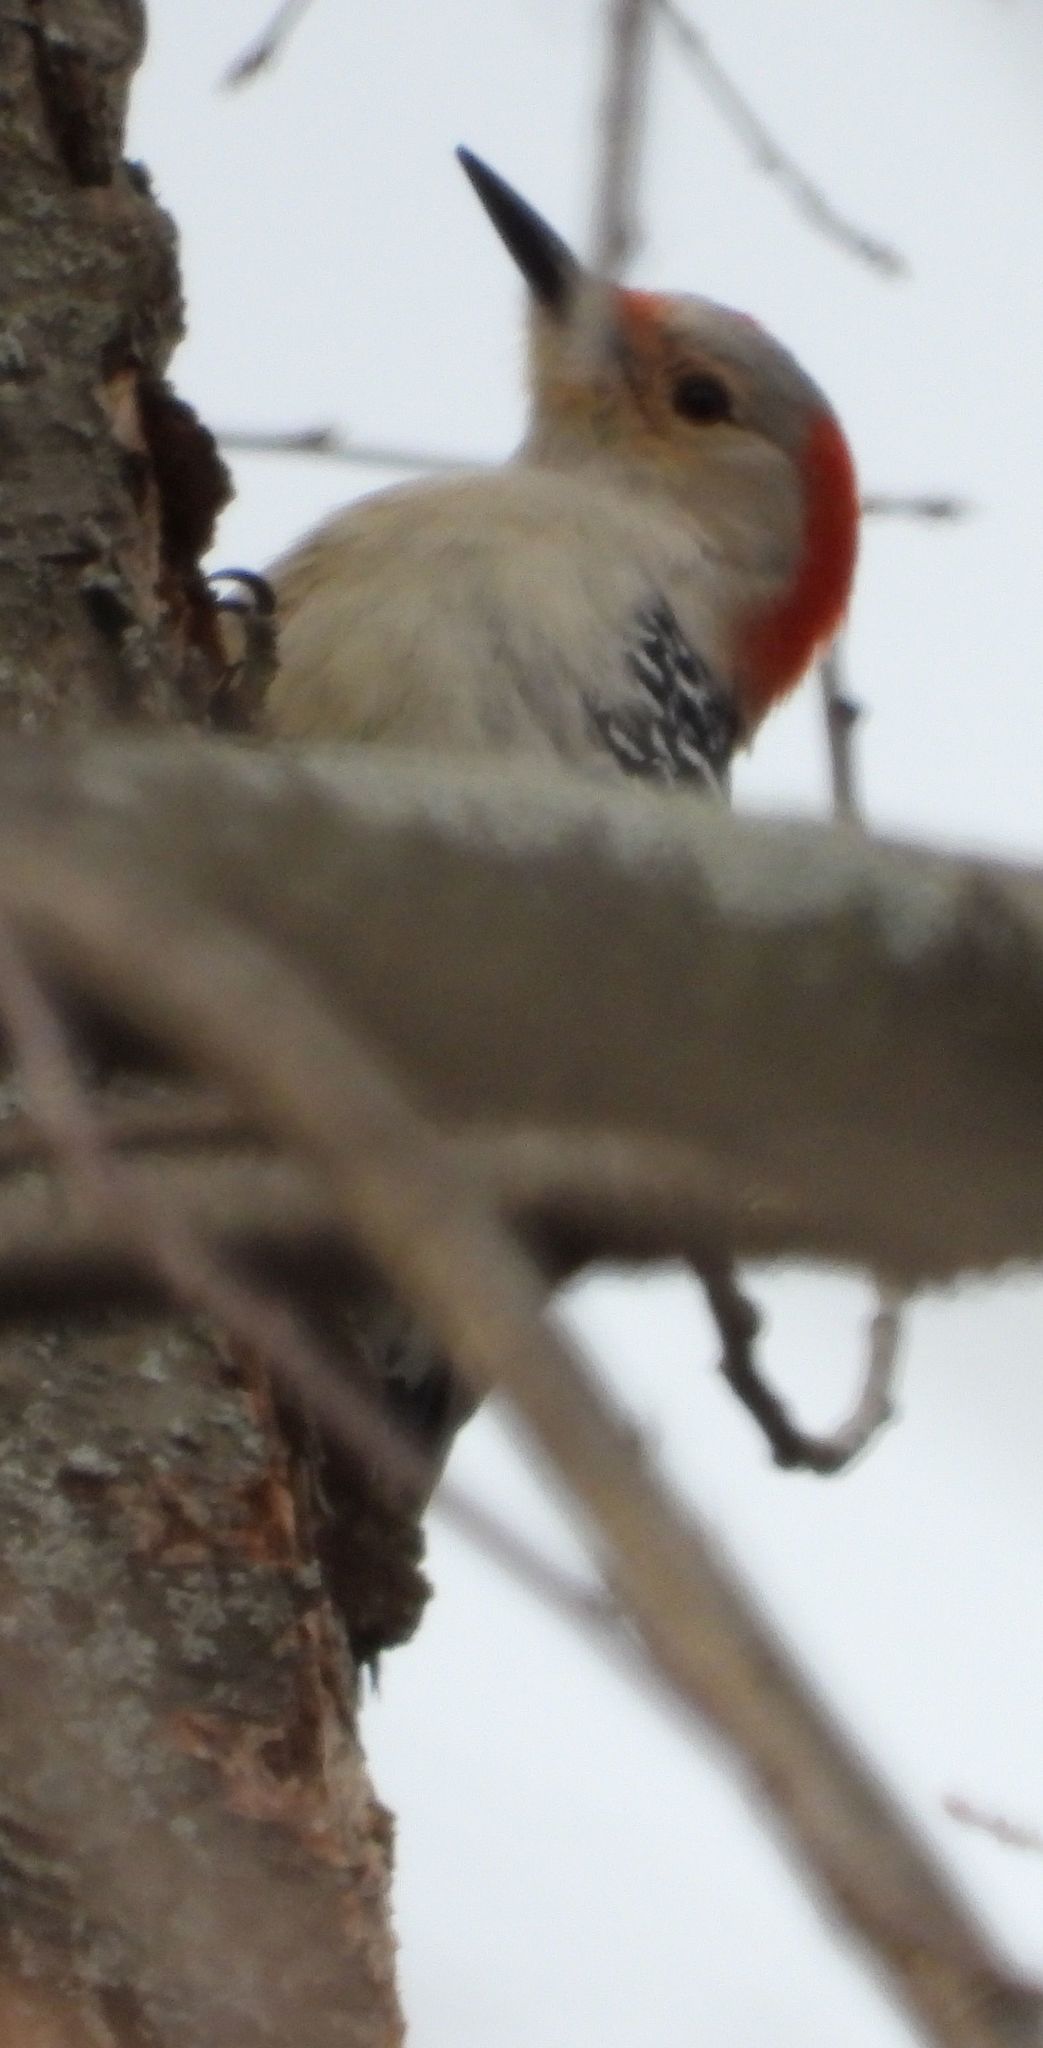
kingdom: Animalia
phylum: Chordata
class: Aves
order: Piciformes
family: Picidae
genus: Melanerpes
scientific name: Melanerpes carolinus
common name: Red-bellied woodpecker
